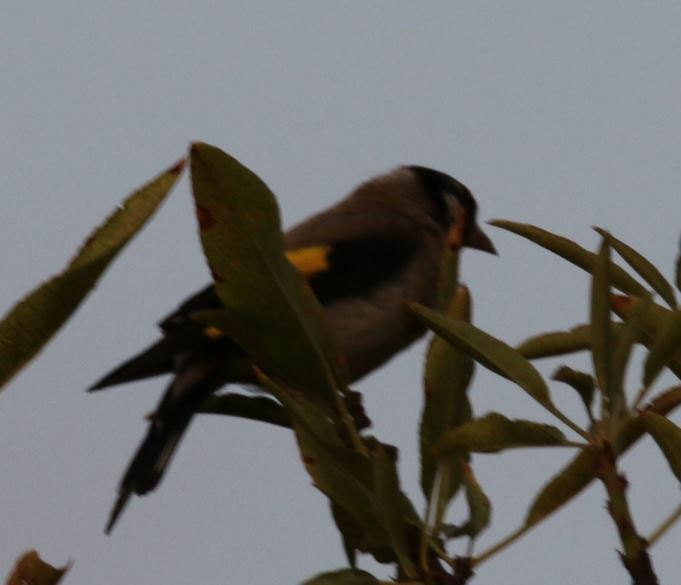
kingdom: Animalia
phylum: Chordata
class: Aves
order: Passeriformes
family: Fringillidae
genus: Carduelis
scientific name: Carduelis carduelis
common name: European goldfinch
